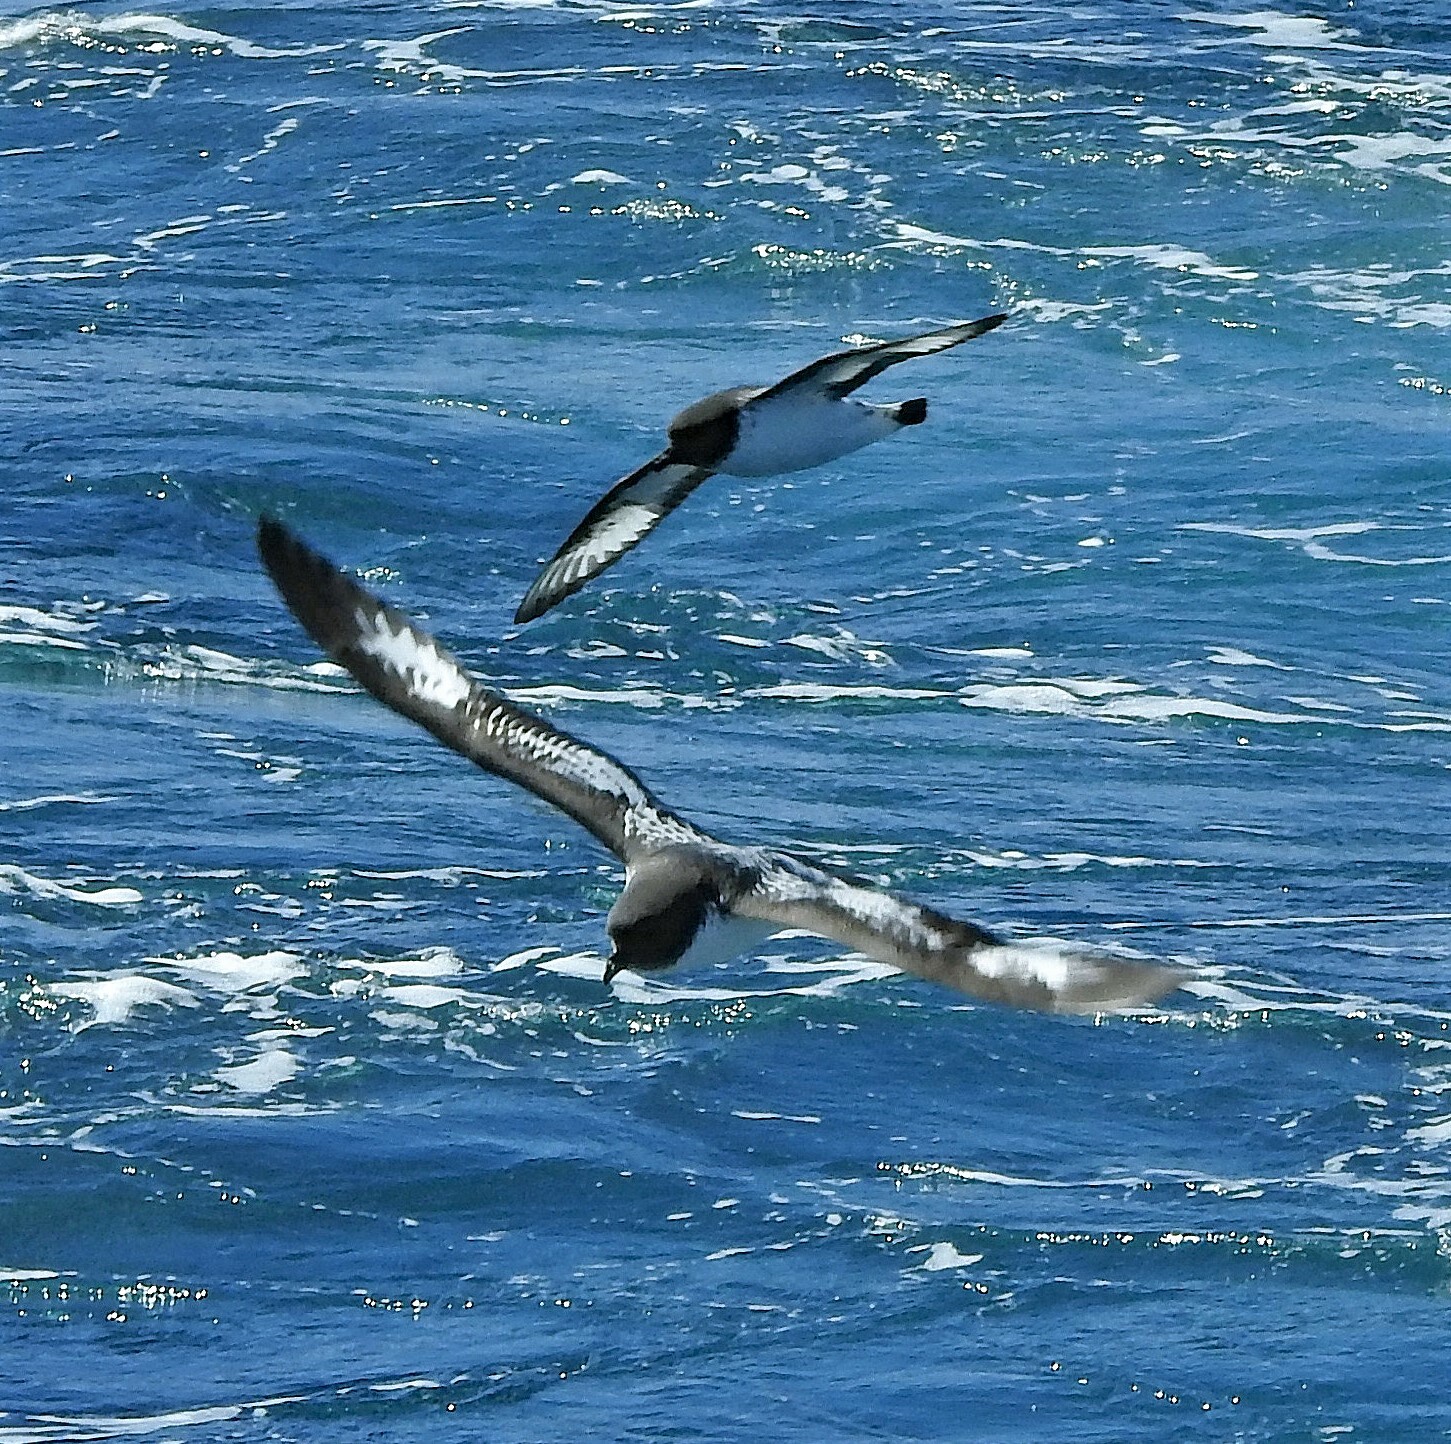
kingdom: Animalia
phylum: Chordata
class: Aves
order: Procellariiformes
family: Procellariidae
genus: Daption
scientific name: Daption capense
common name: Cape petrel
